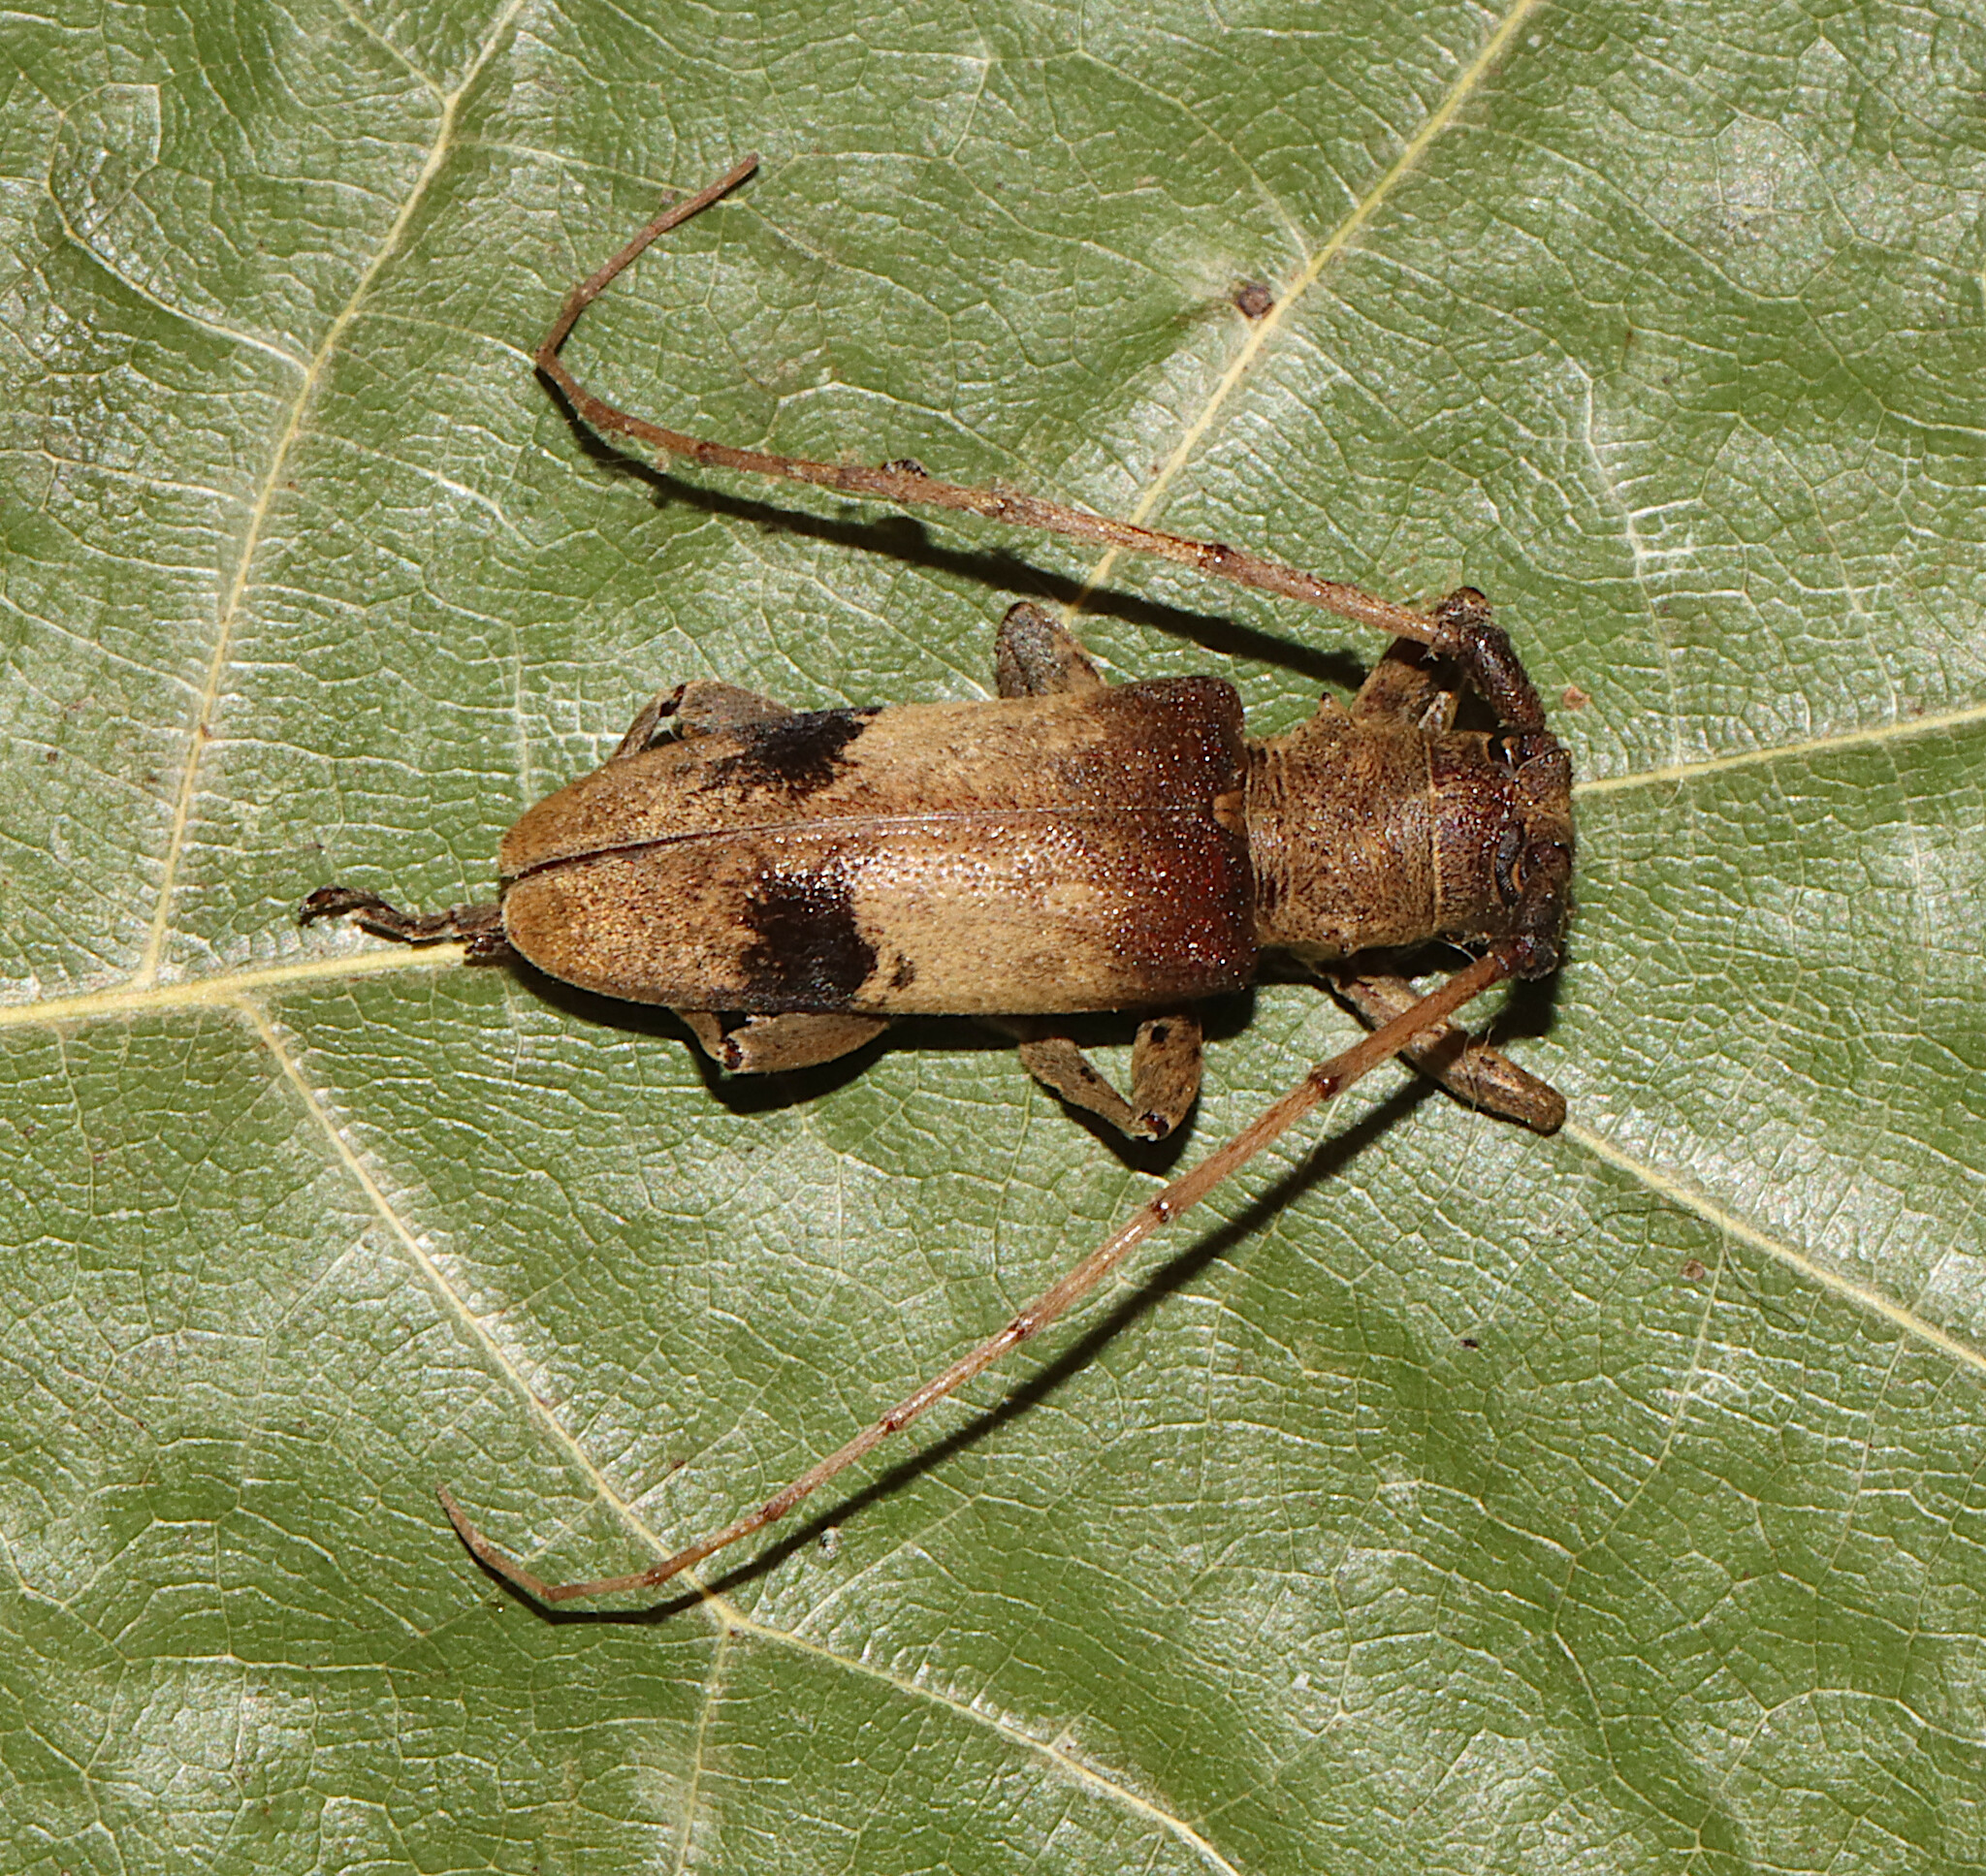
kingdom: Animalia
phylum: Arthropoda
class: Insecta
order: Coleoptera
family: Cerambycidae
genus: Goes
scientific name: Goes pulcher
